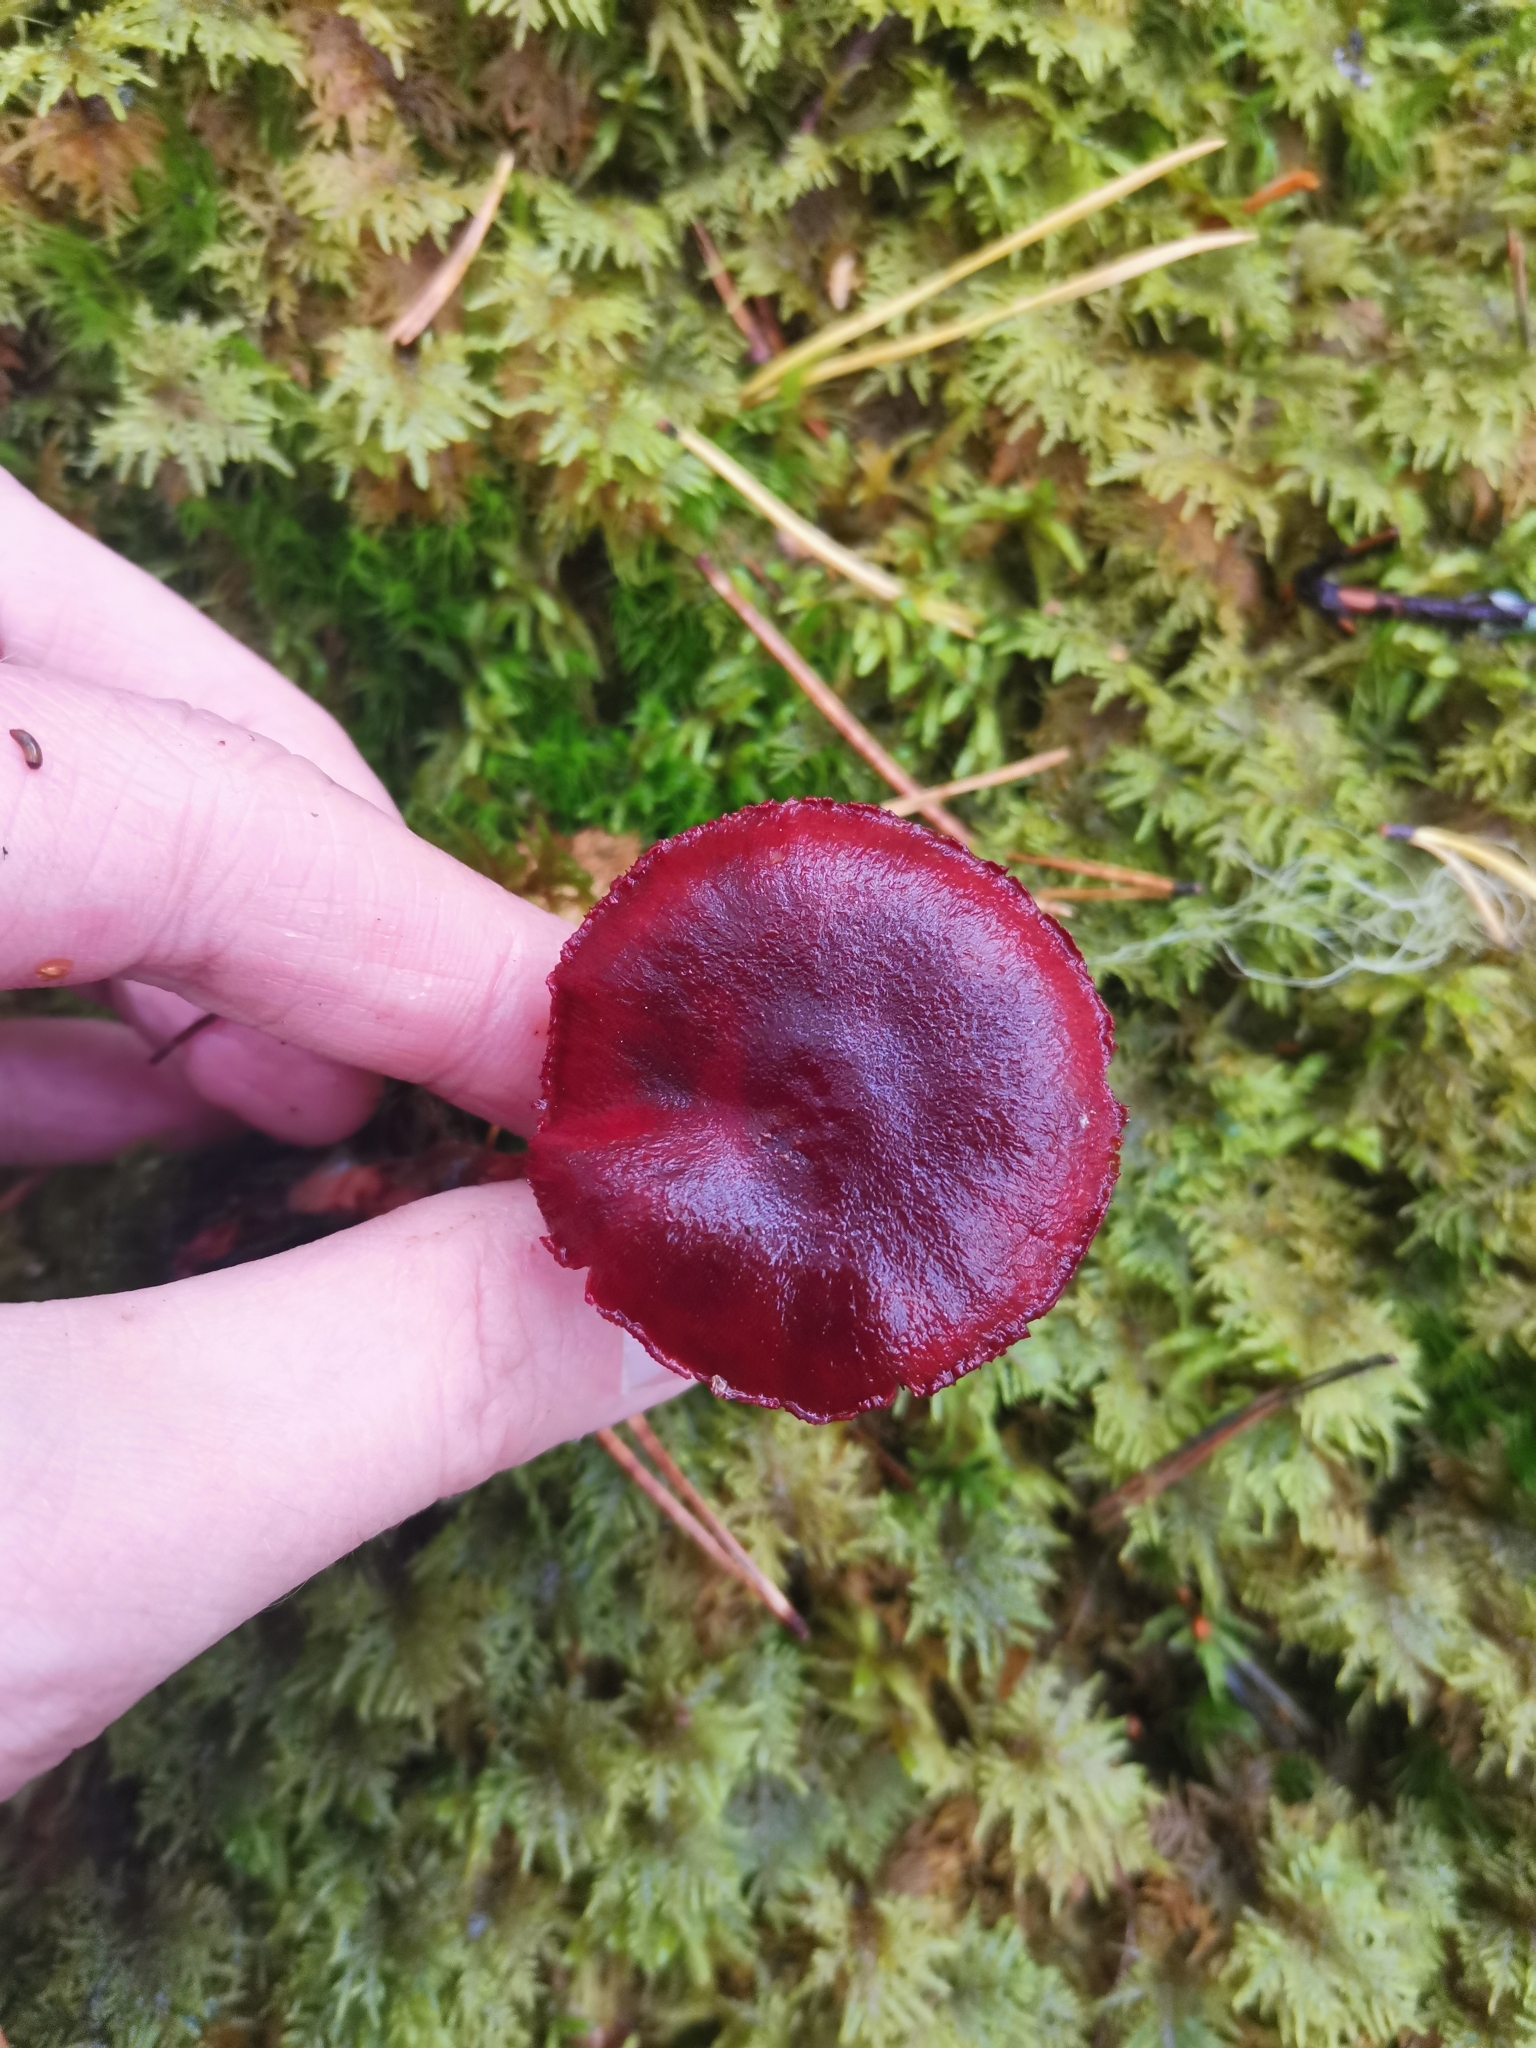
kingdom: Fungi
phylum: Basidiomycota
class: Agaricomycetes
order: Agaricales
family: Cortinariaceae
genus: Cortinarius
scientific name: Cortinarius sanguineus
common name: Bloodred webcap
